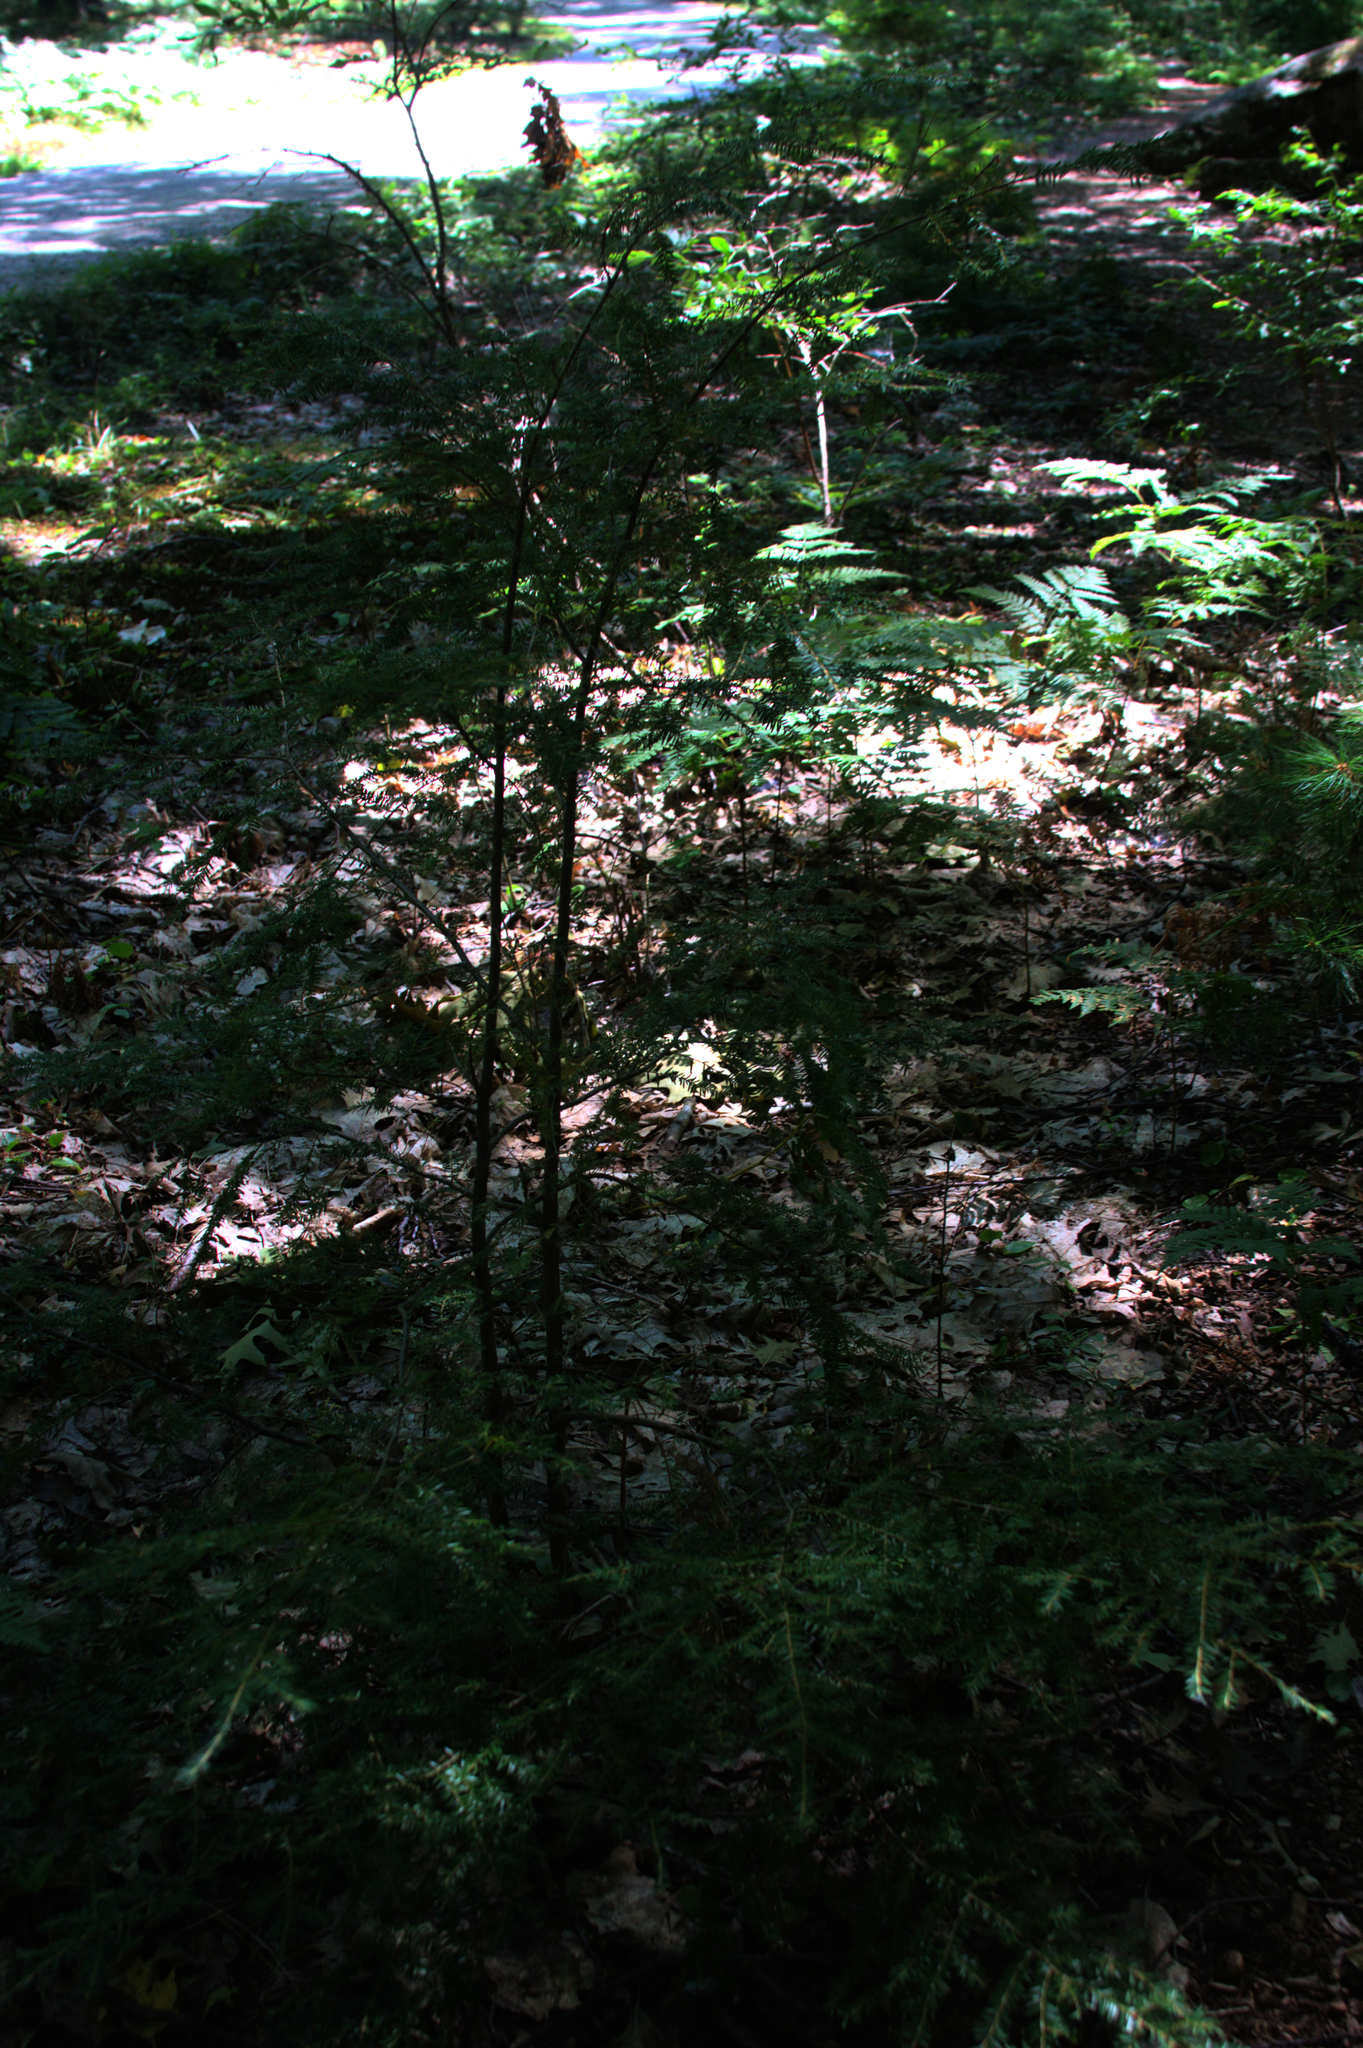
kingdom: Plantae
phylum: Tracheophyta
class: Pinopsida
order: Pinales
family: Pinaceae
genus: Tsuga
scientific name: Tsuga canadensis
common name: Eastern hemlock
